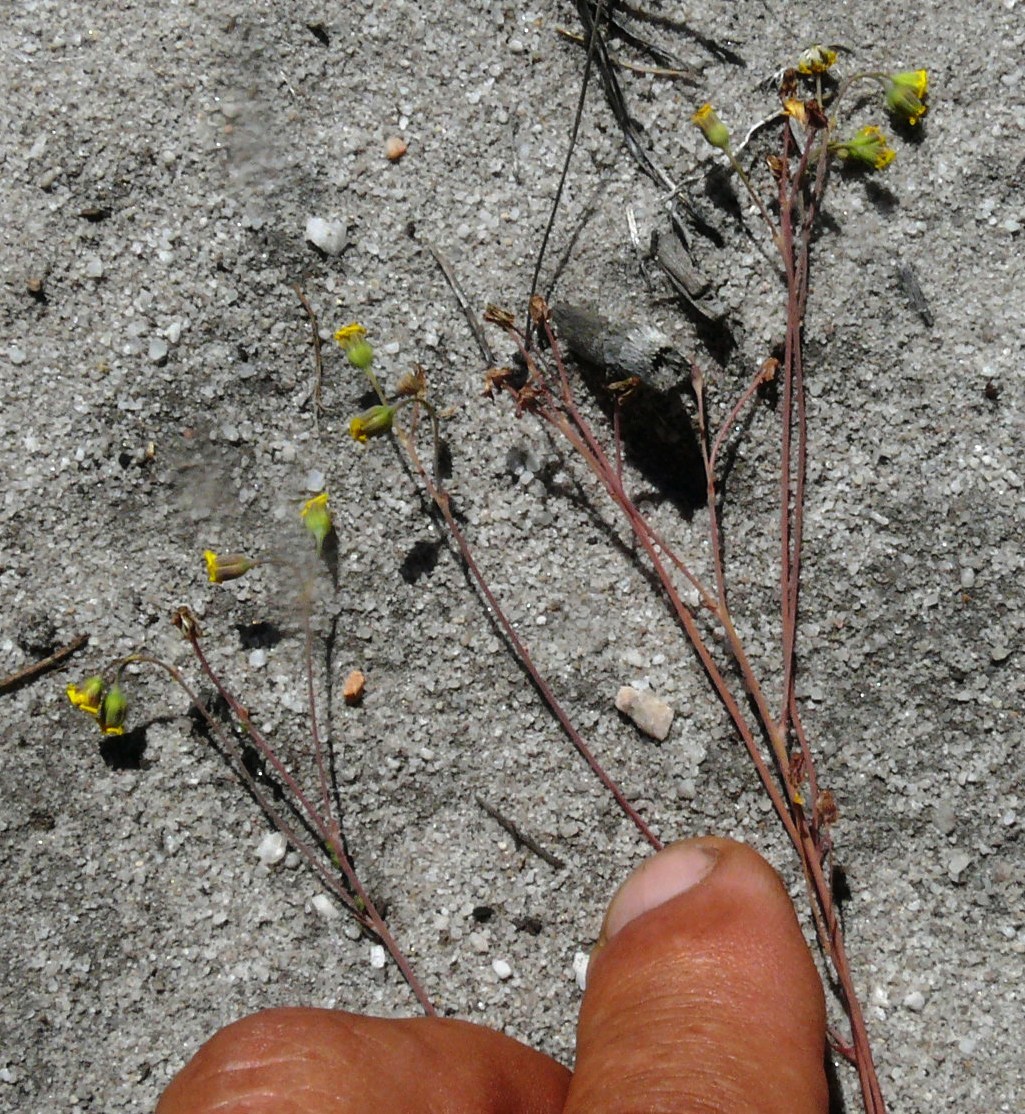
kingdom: Plantae
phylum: Tracheophyta
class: Magnoliopsida
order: Asterales
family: Asteraceae
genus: Gymnodiscus
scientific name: Gymnodiscus capillaris
